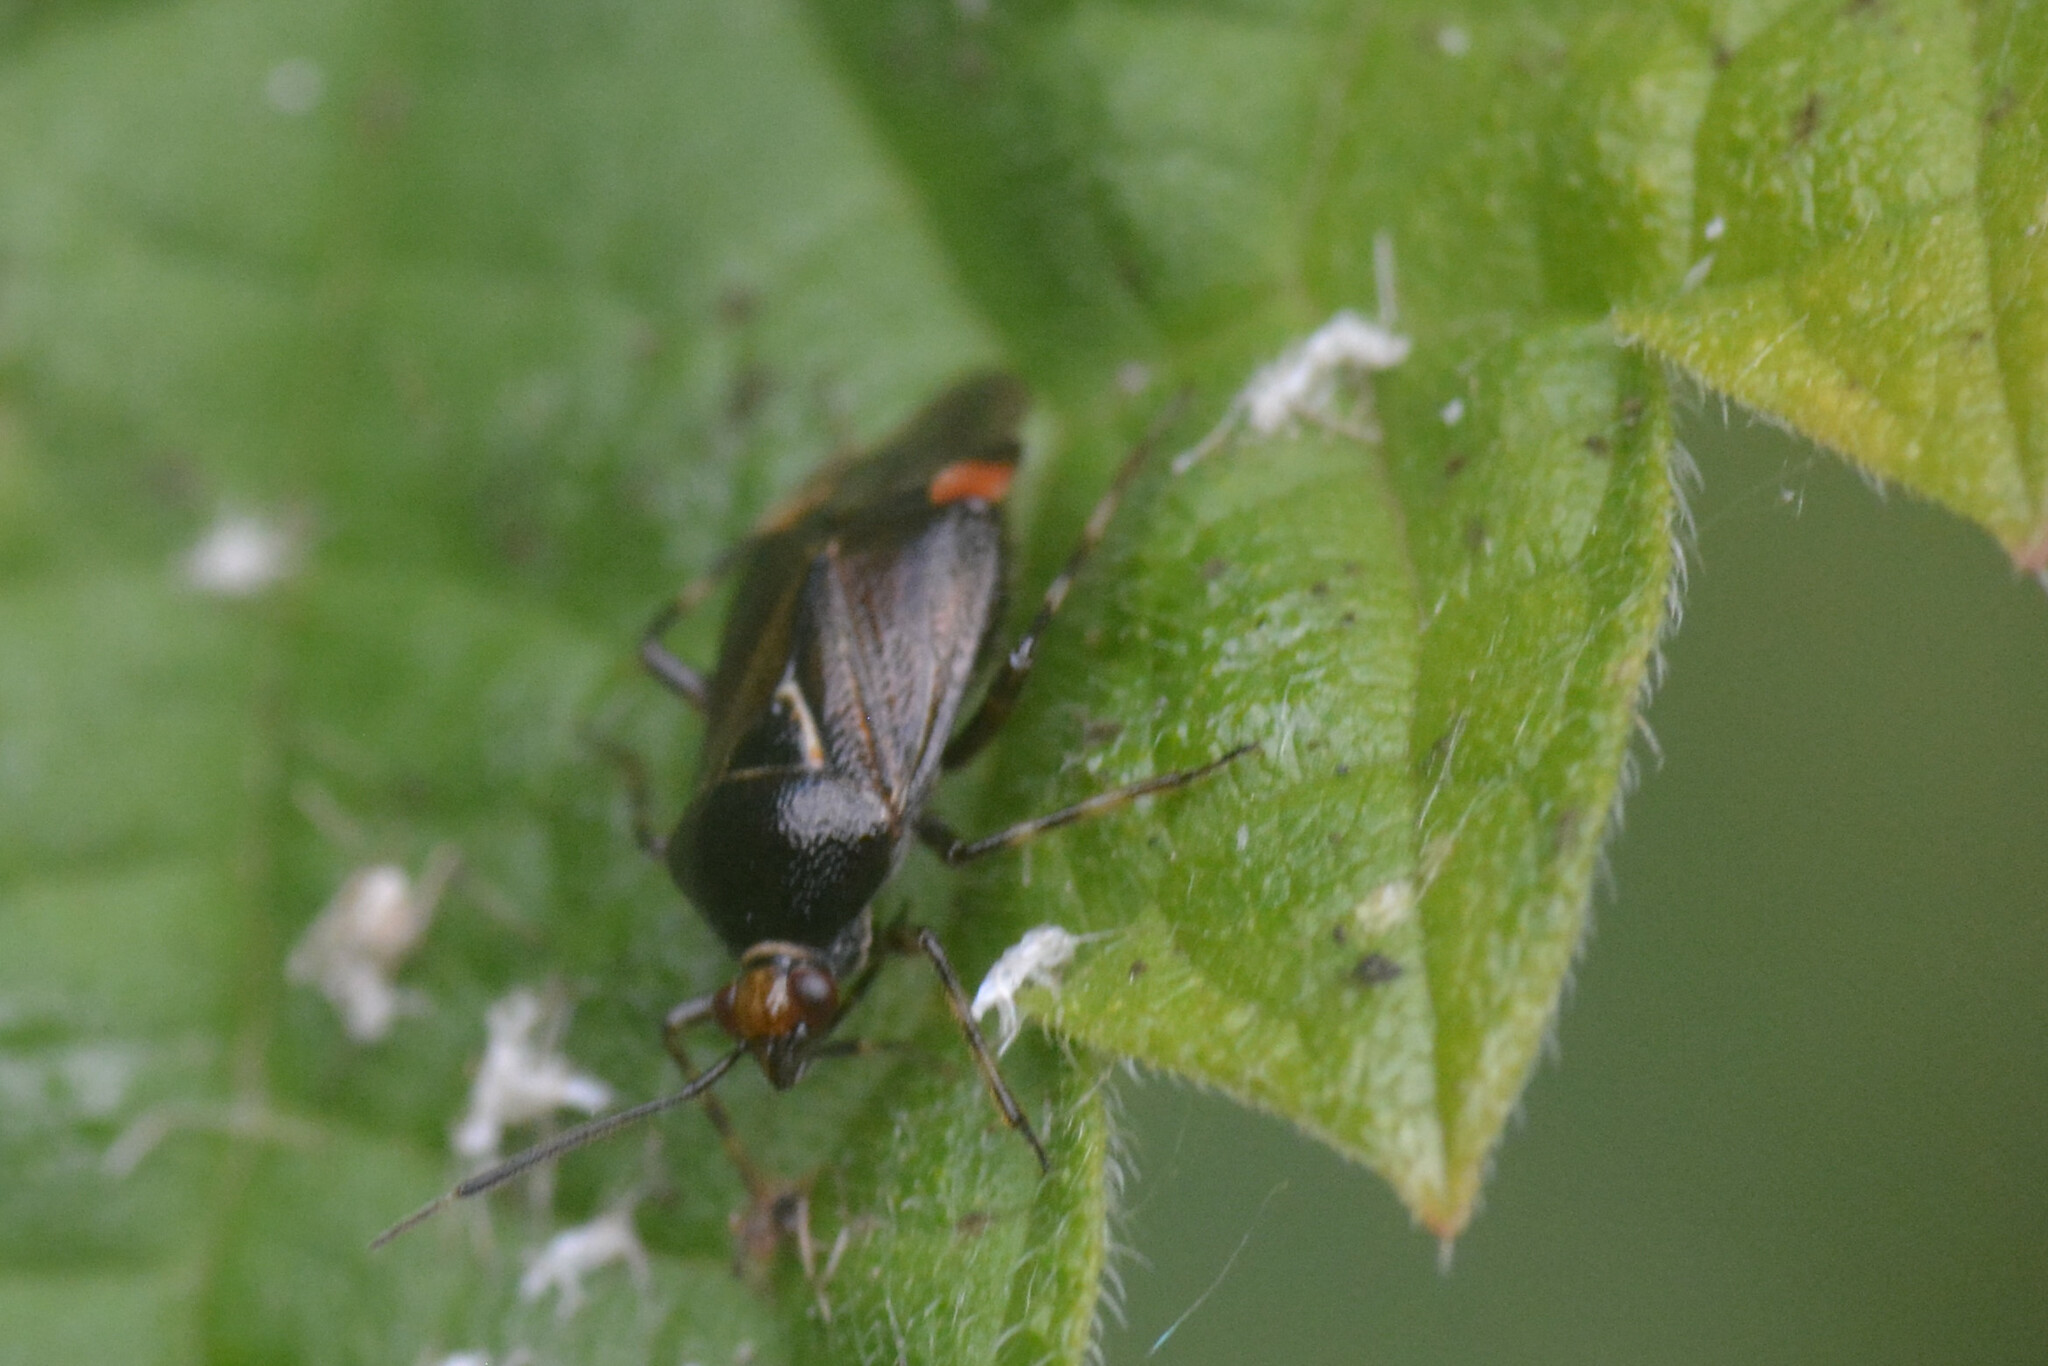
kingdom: Animalia
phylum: Arthropoda
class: Insecta
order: Hemiptera
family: Miridae
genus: Deraeocoris
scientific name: Deraeocoris flavilinea
